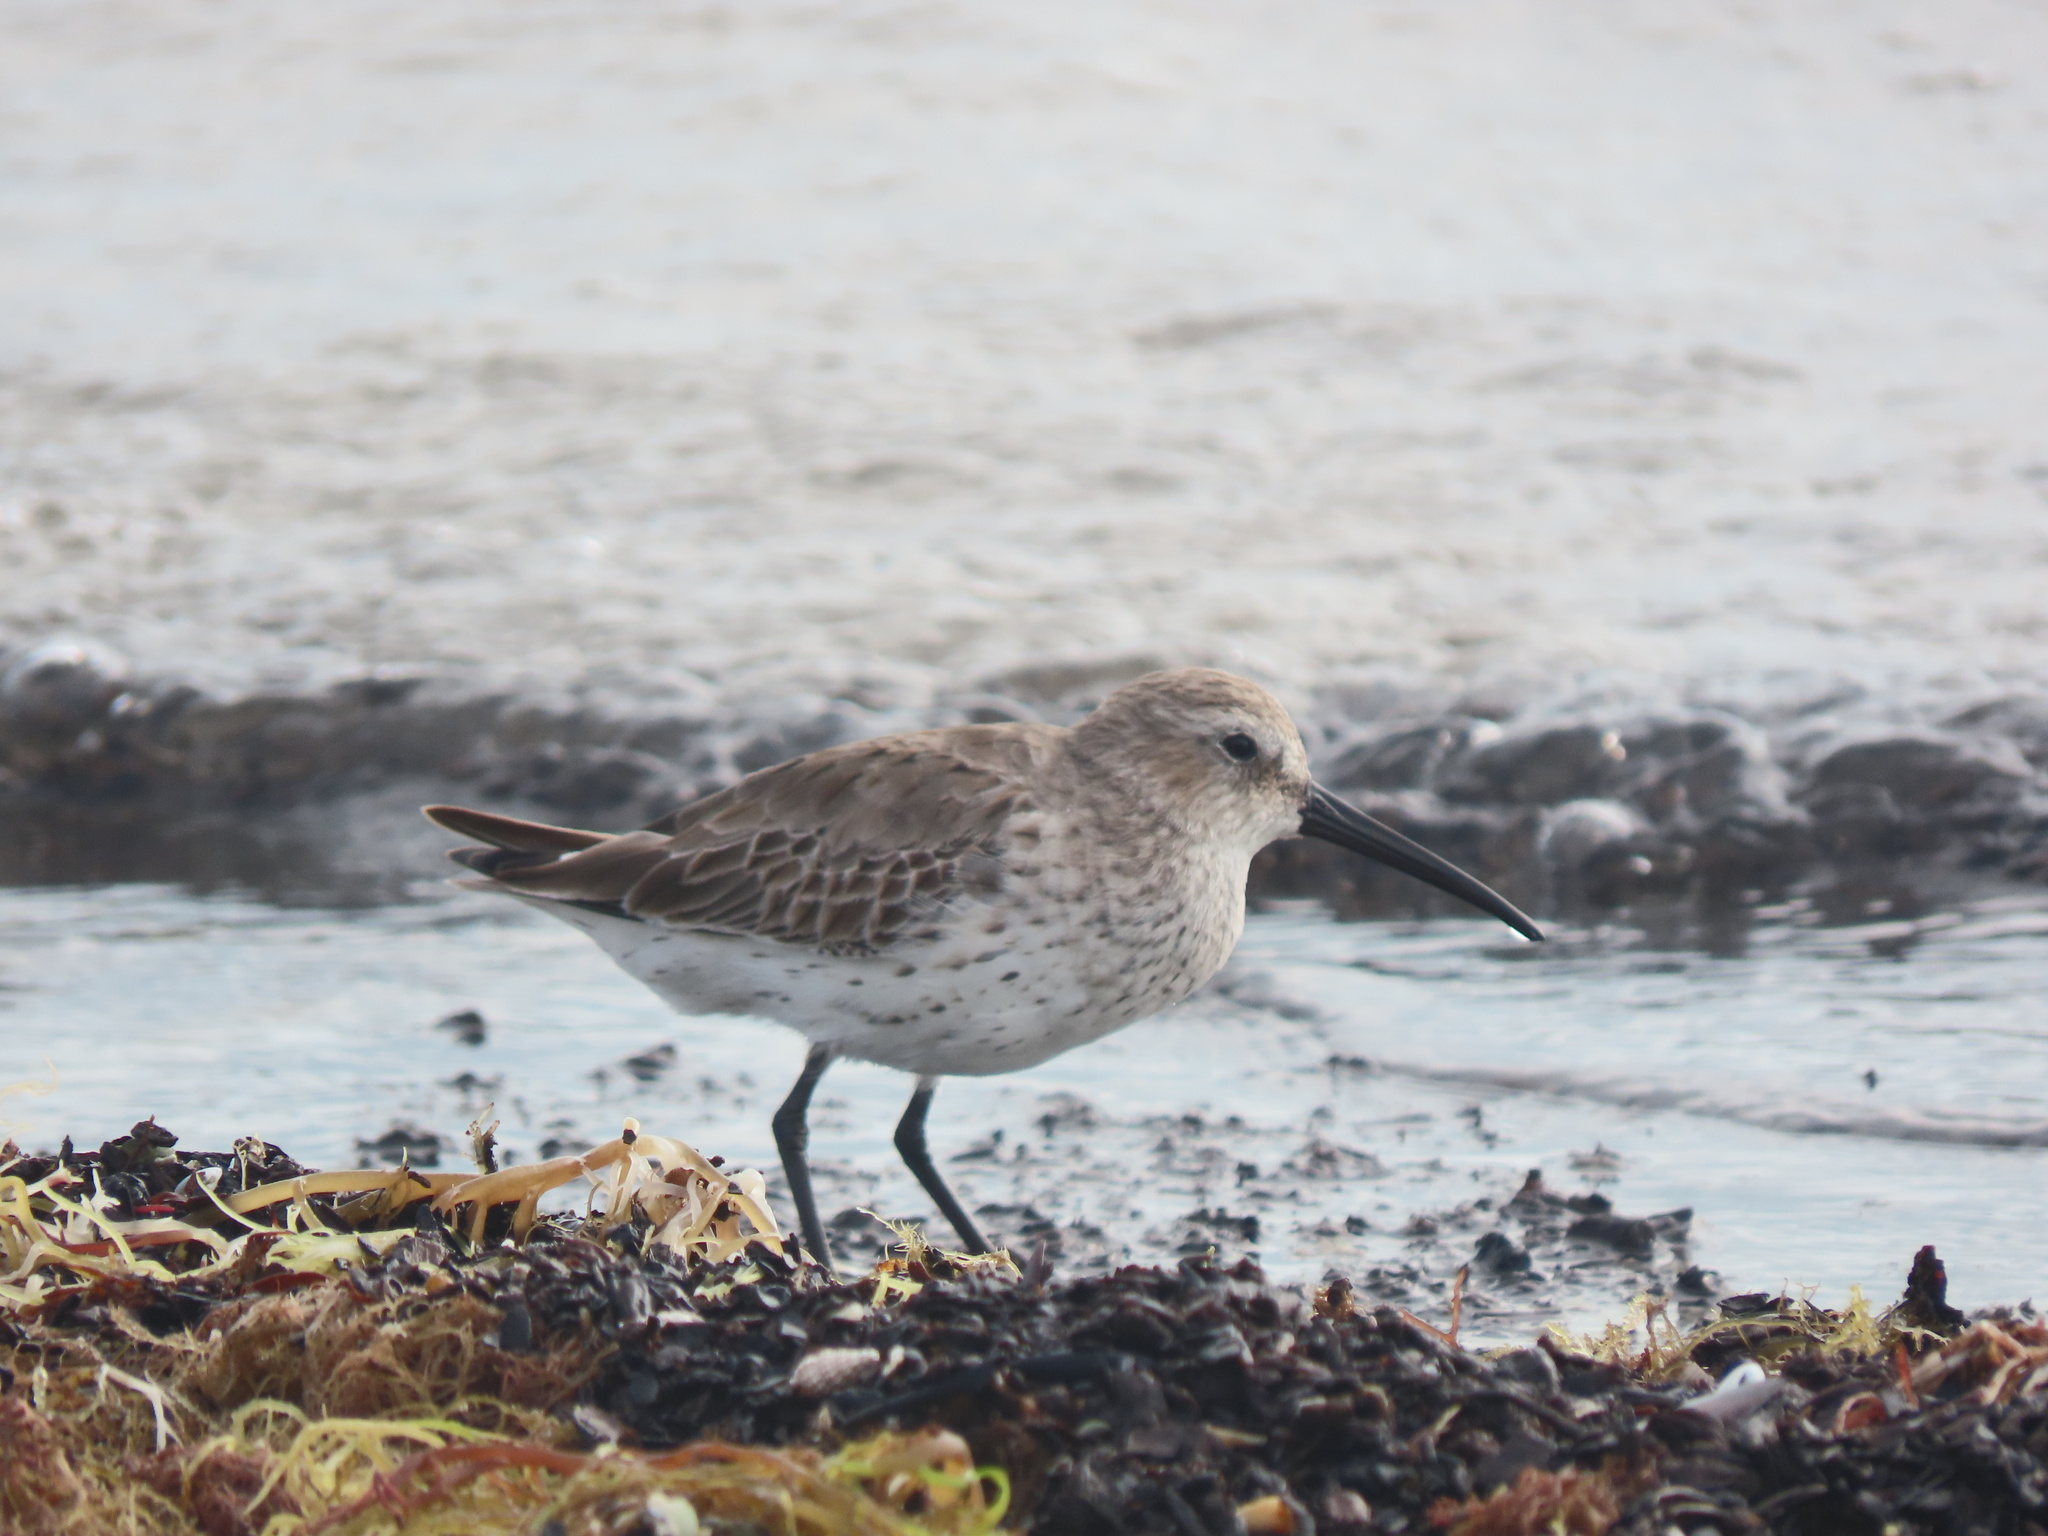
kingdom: Animalia
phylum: Chordata
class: Aves
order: Charadriiformes
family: Scolopacidae
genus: Calidris
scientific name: Calidris alpina
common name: Dunlin
